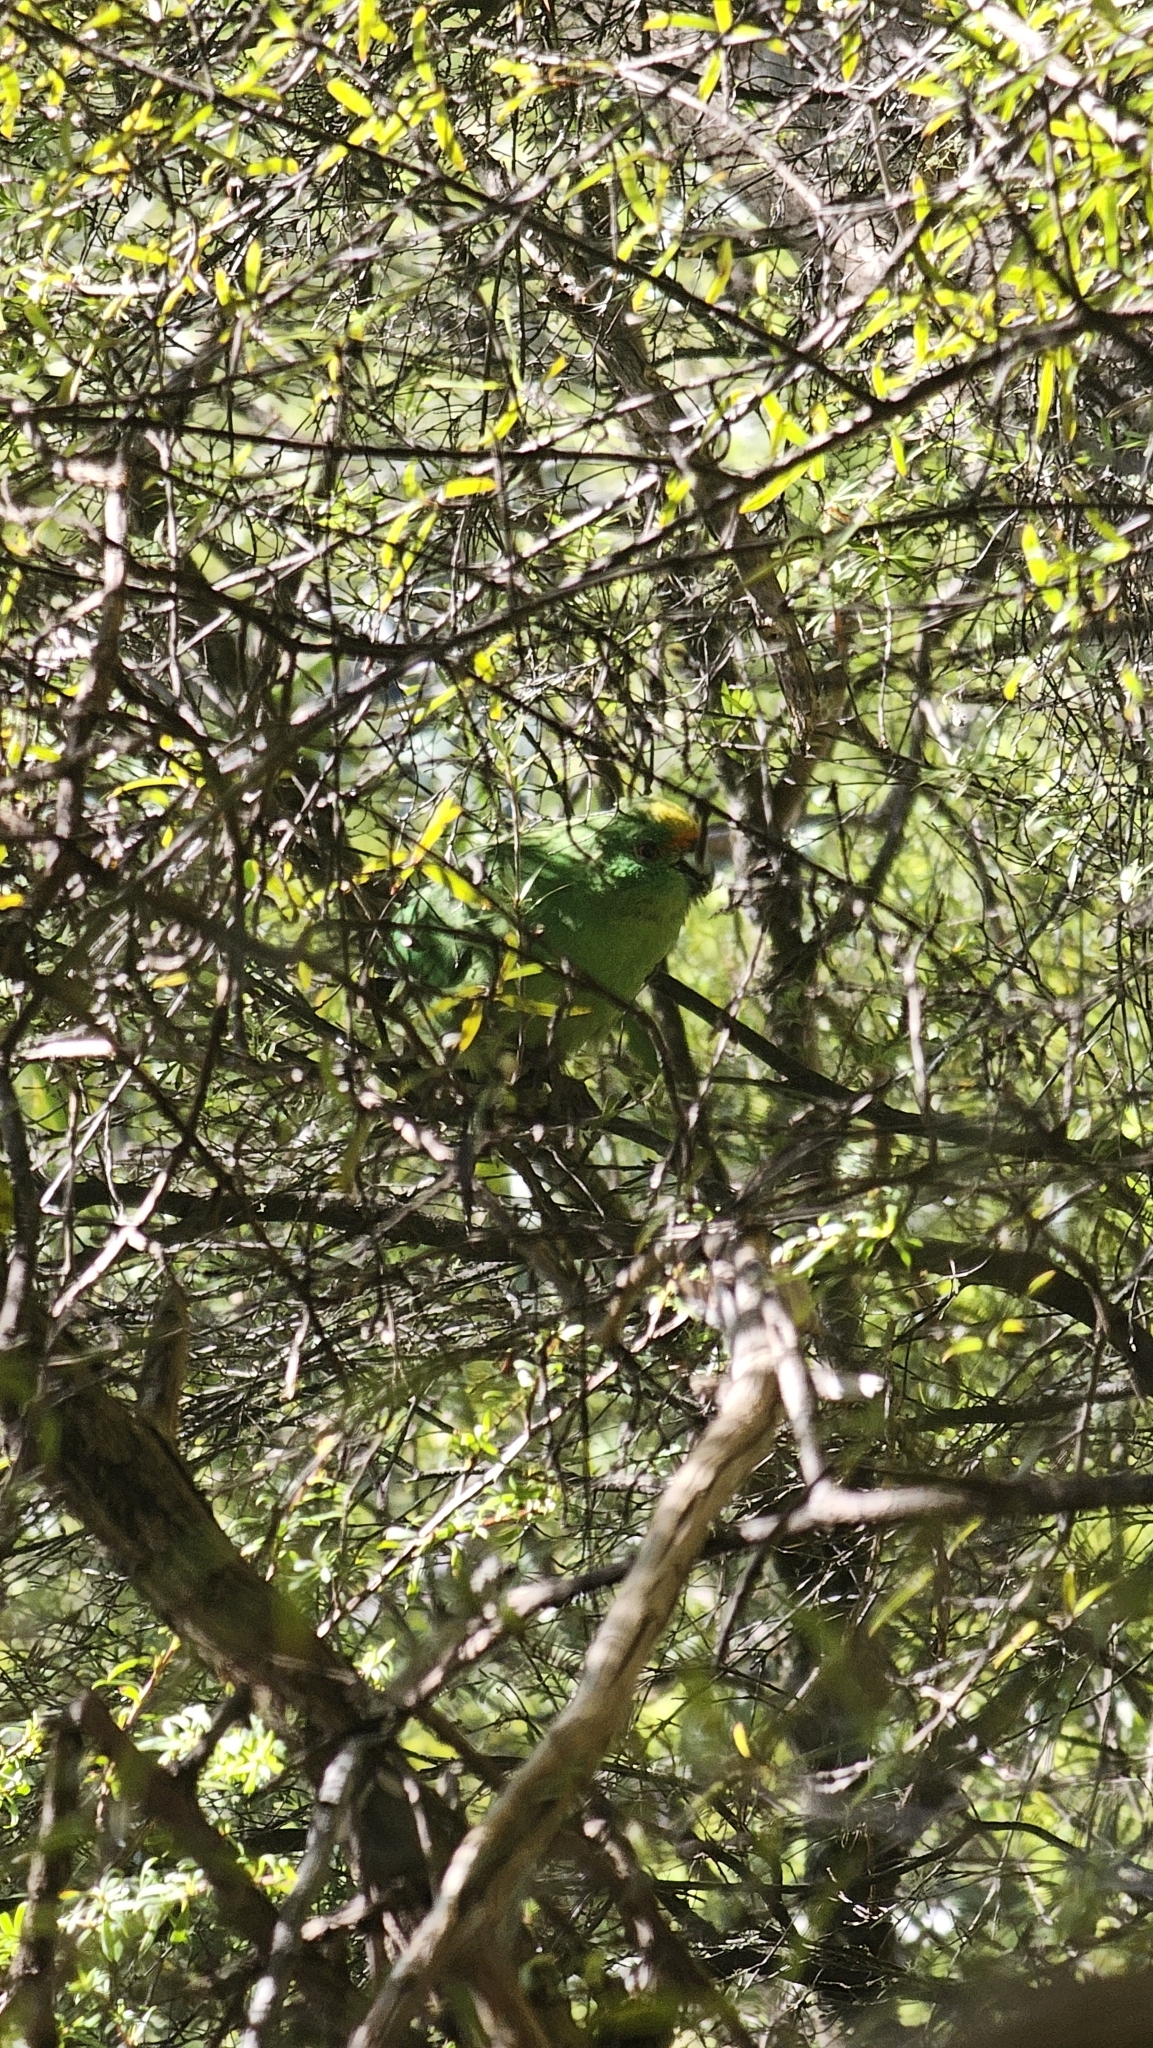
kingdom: Animalia
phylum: Chordata
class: Aves
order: Psittaciformes
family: Psittacidae
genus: Cyanoramphus
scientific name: Cyanoramphus malherbi
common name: Malherbe's parakeet
